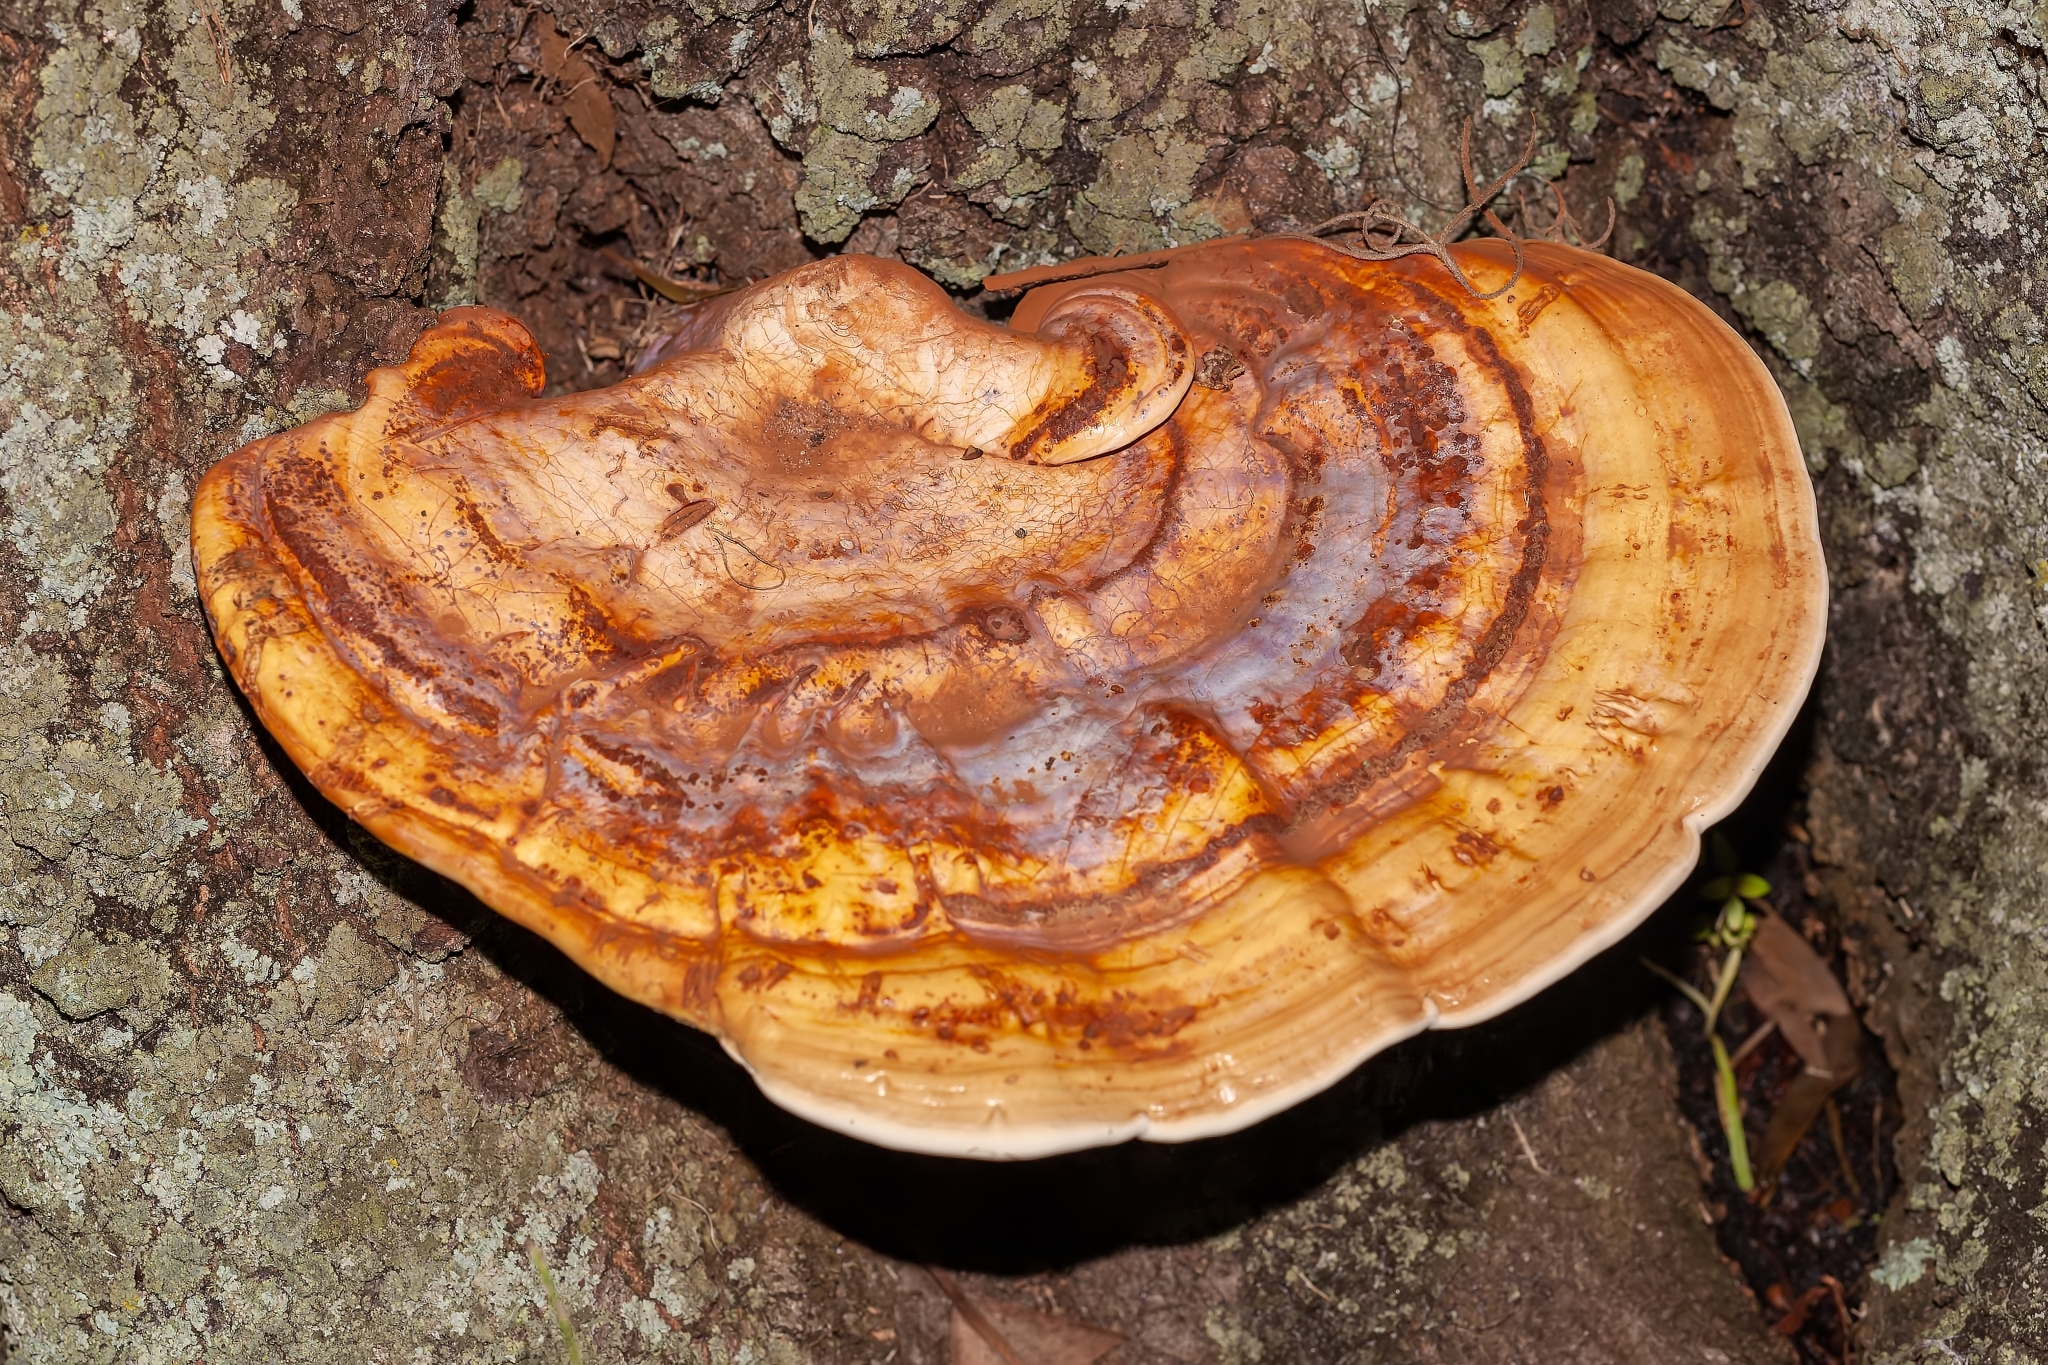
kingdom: Fungi
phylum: Basidiomycota
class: Agaricomycetes
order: Polyporales
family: Polyporaceae
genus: Ganoderma
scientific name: Ganoderma curtisii
